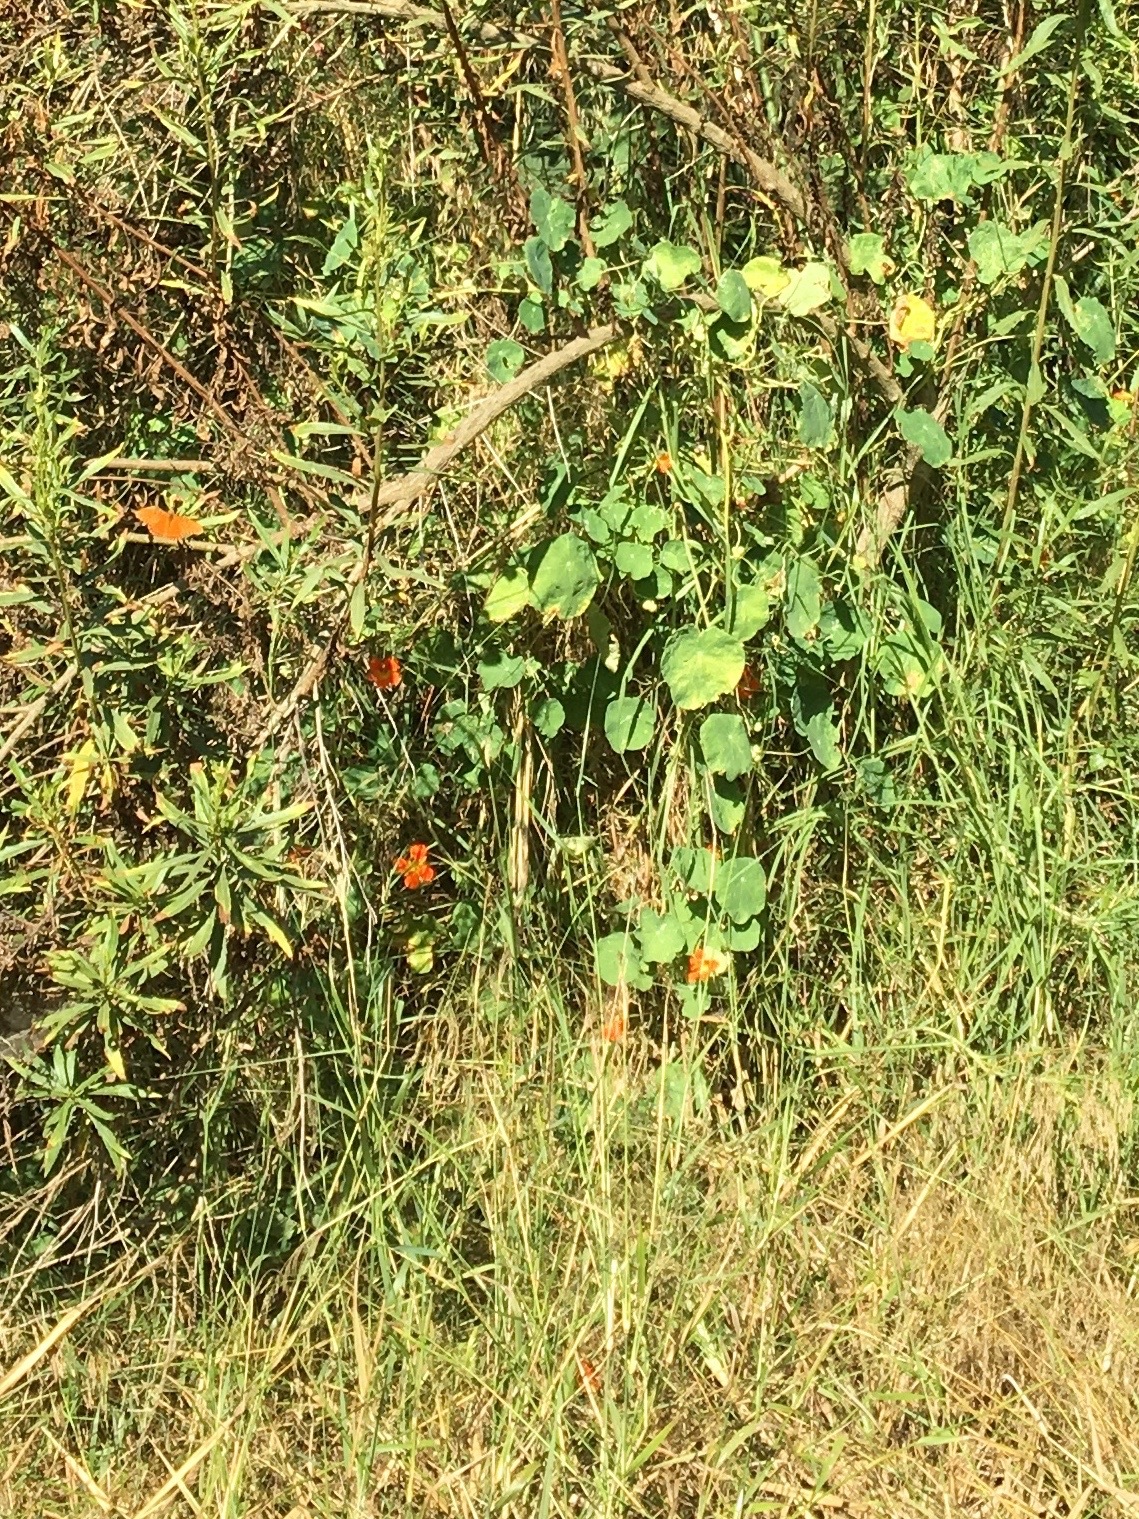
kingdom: Plantae
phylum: Tracheophyta
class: Magnoliopsida
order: Brassicales
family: Tropaeolaceae
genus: Tropaeolum
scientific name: Tropaeolum majus
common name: Nasturtium
